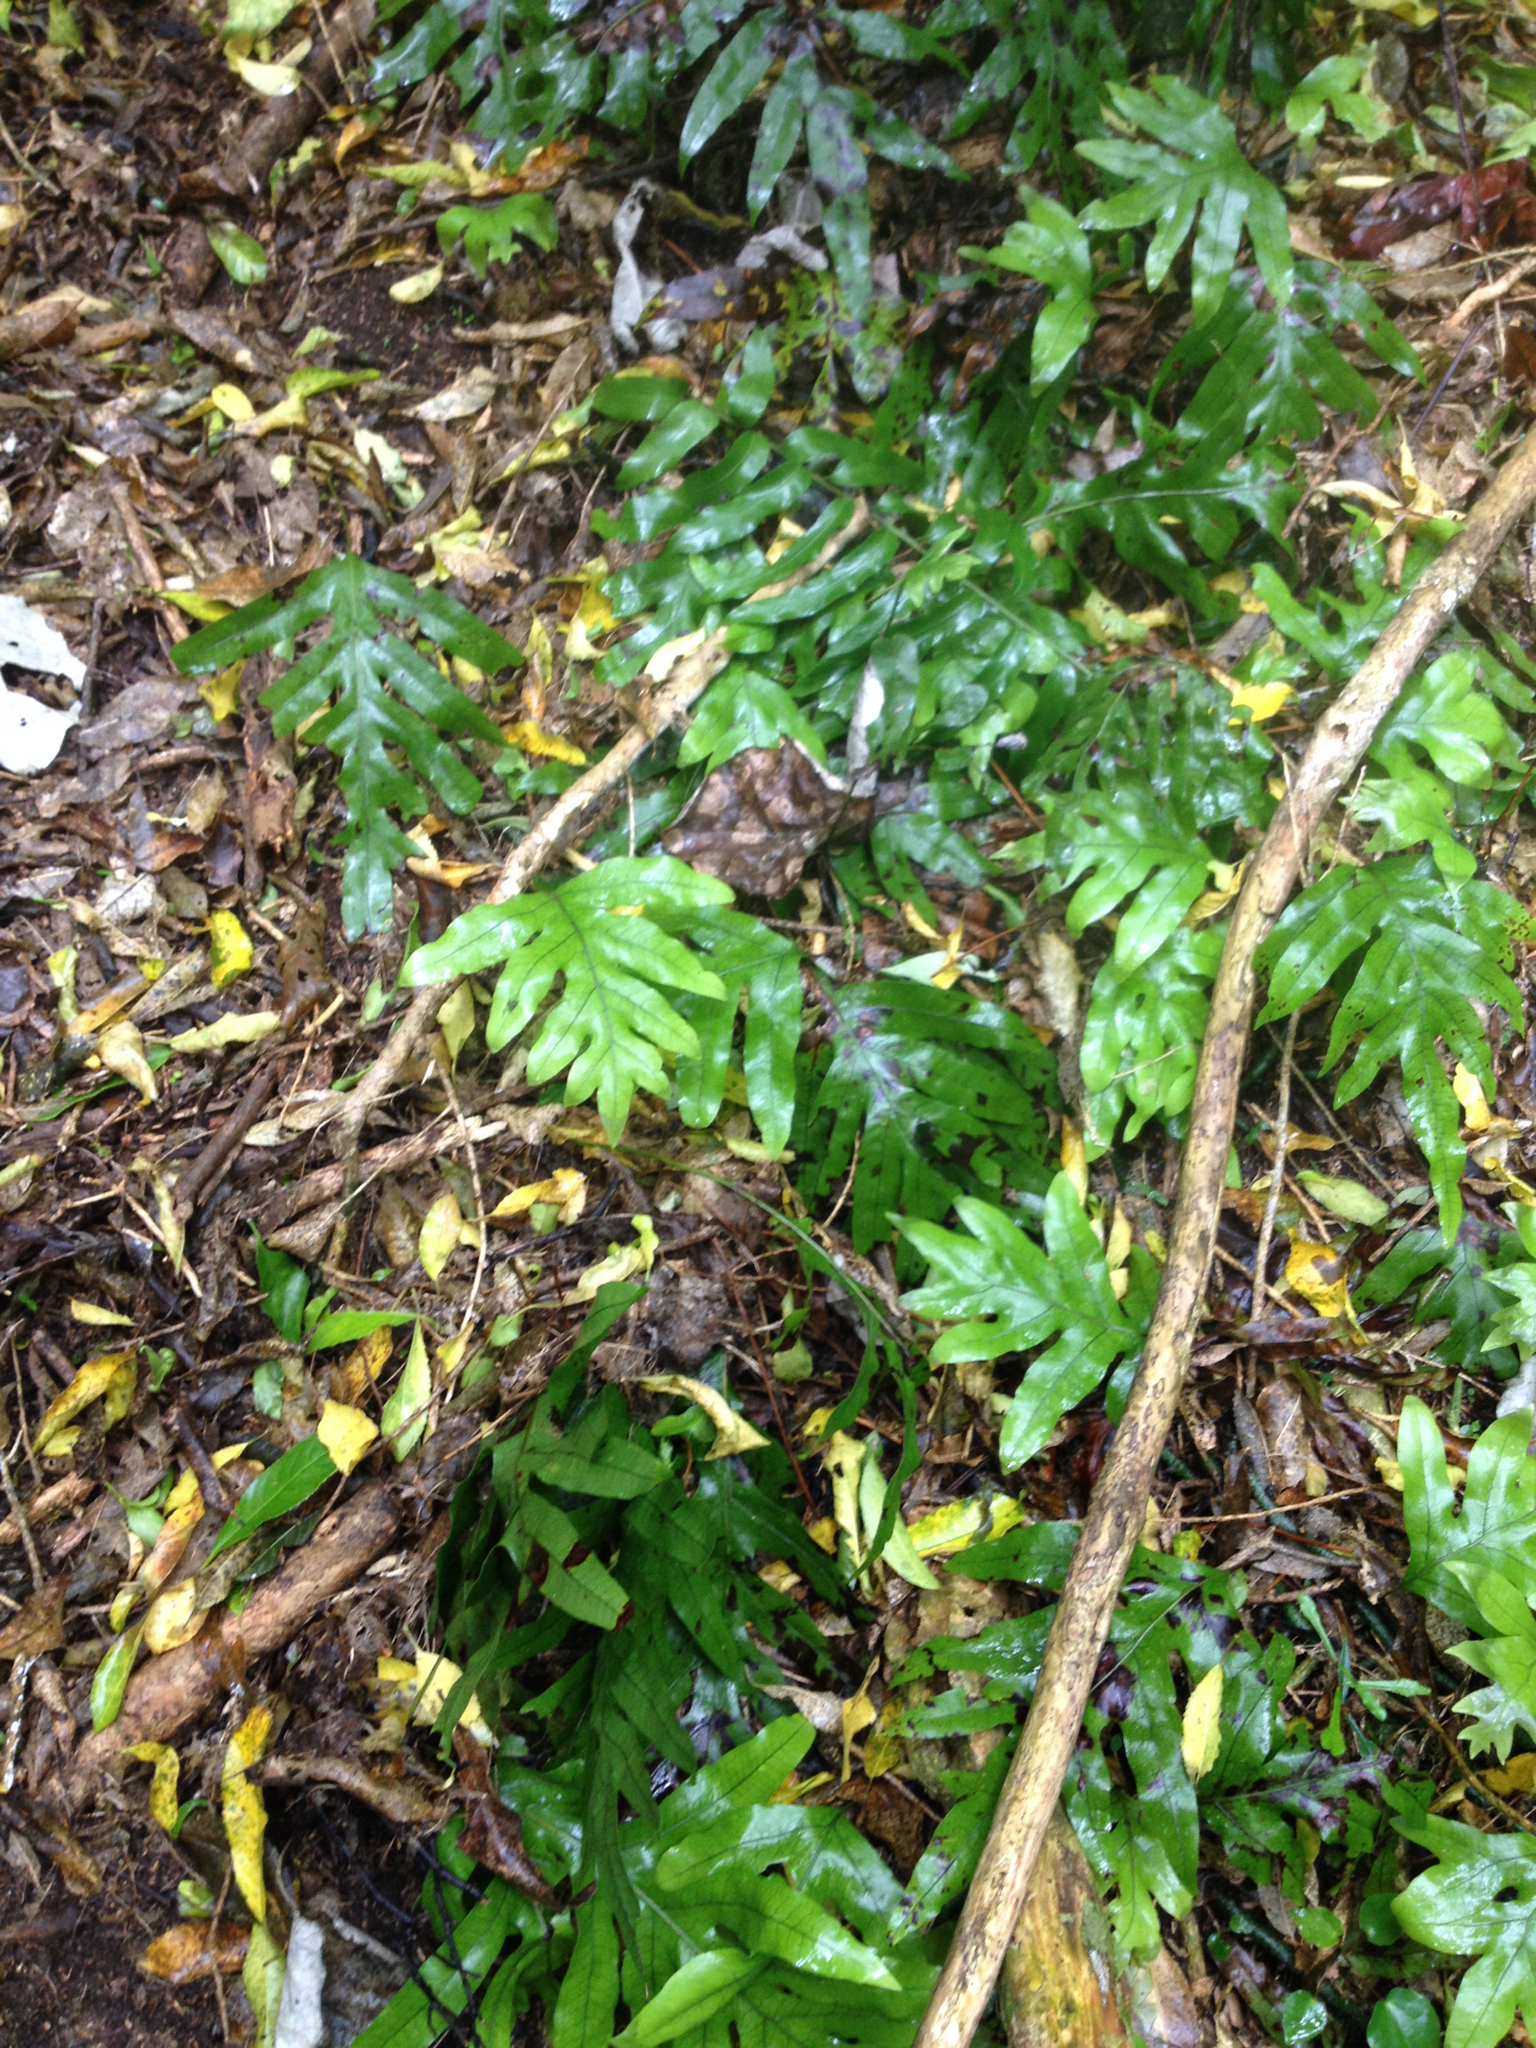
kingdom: Plantae
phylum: Tracheophyta
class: Polypodiopsida
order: Polypodiales
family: Polypodiaceae
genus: Lecanopteris
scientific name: Lecanopteris pustulata
